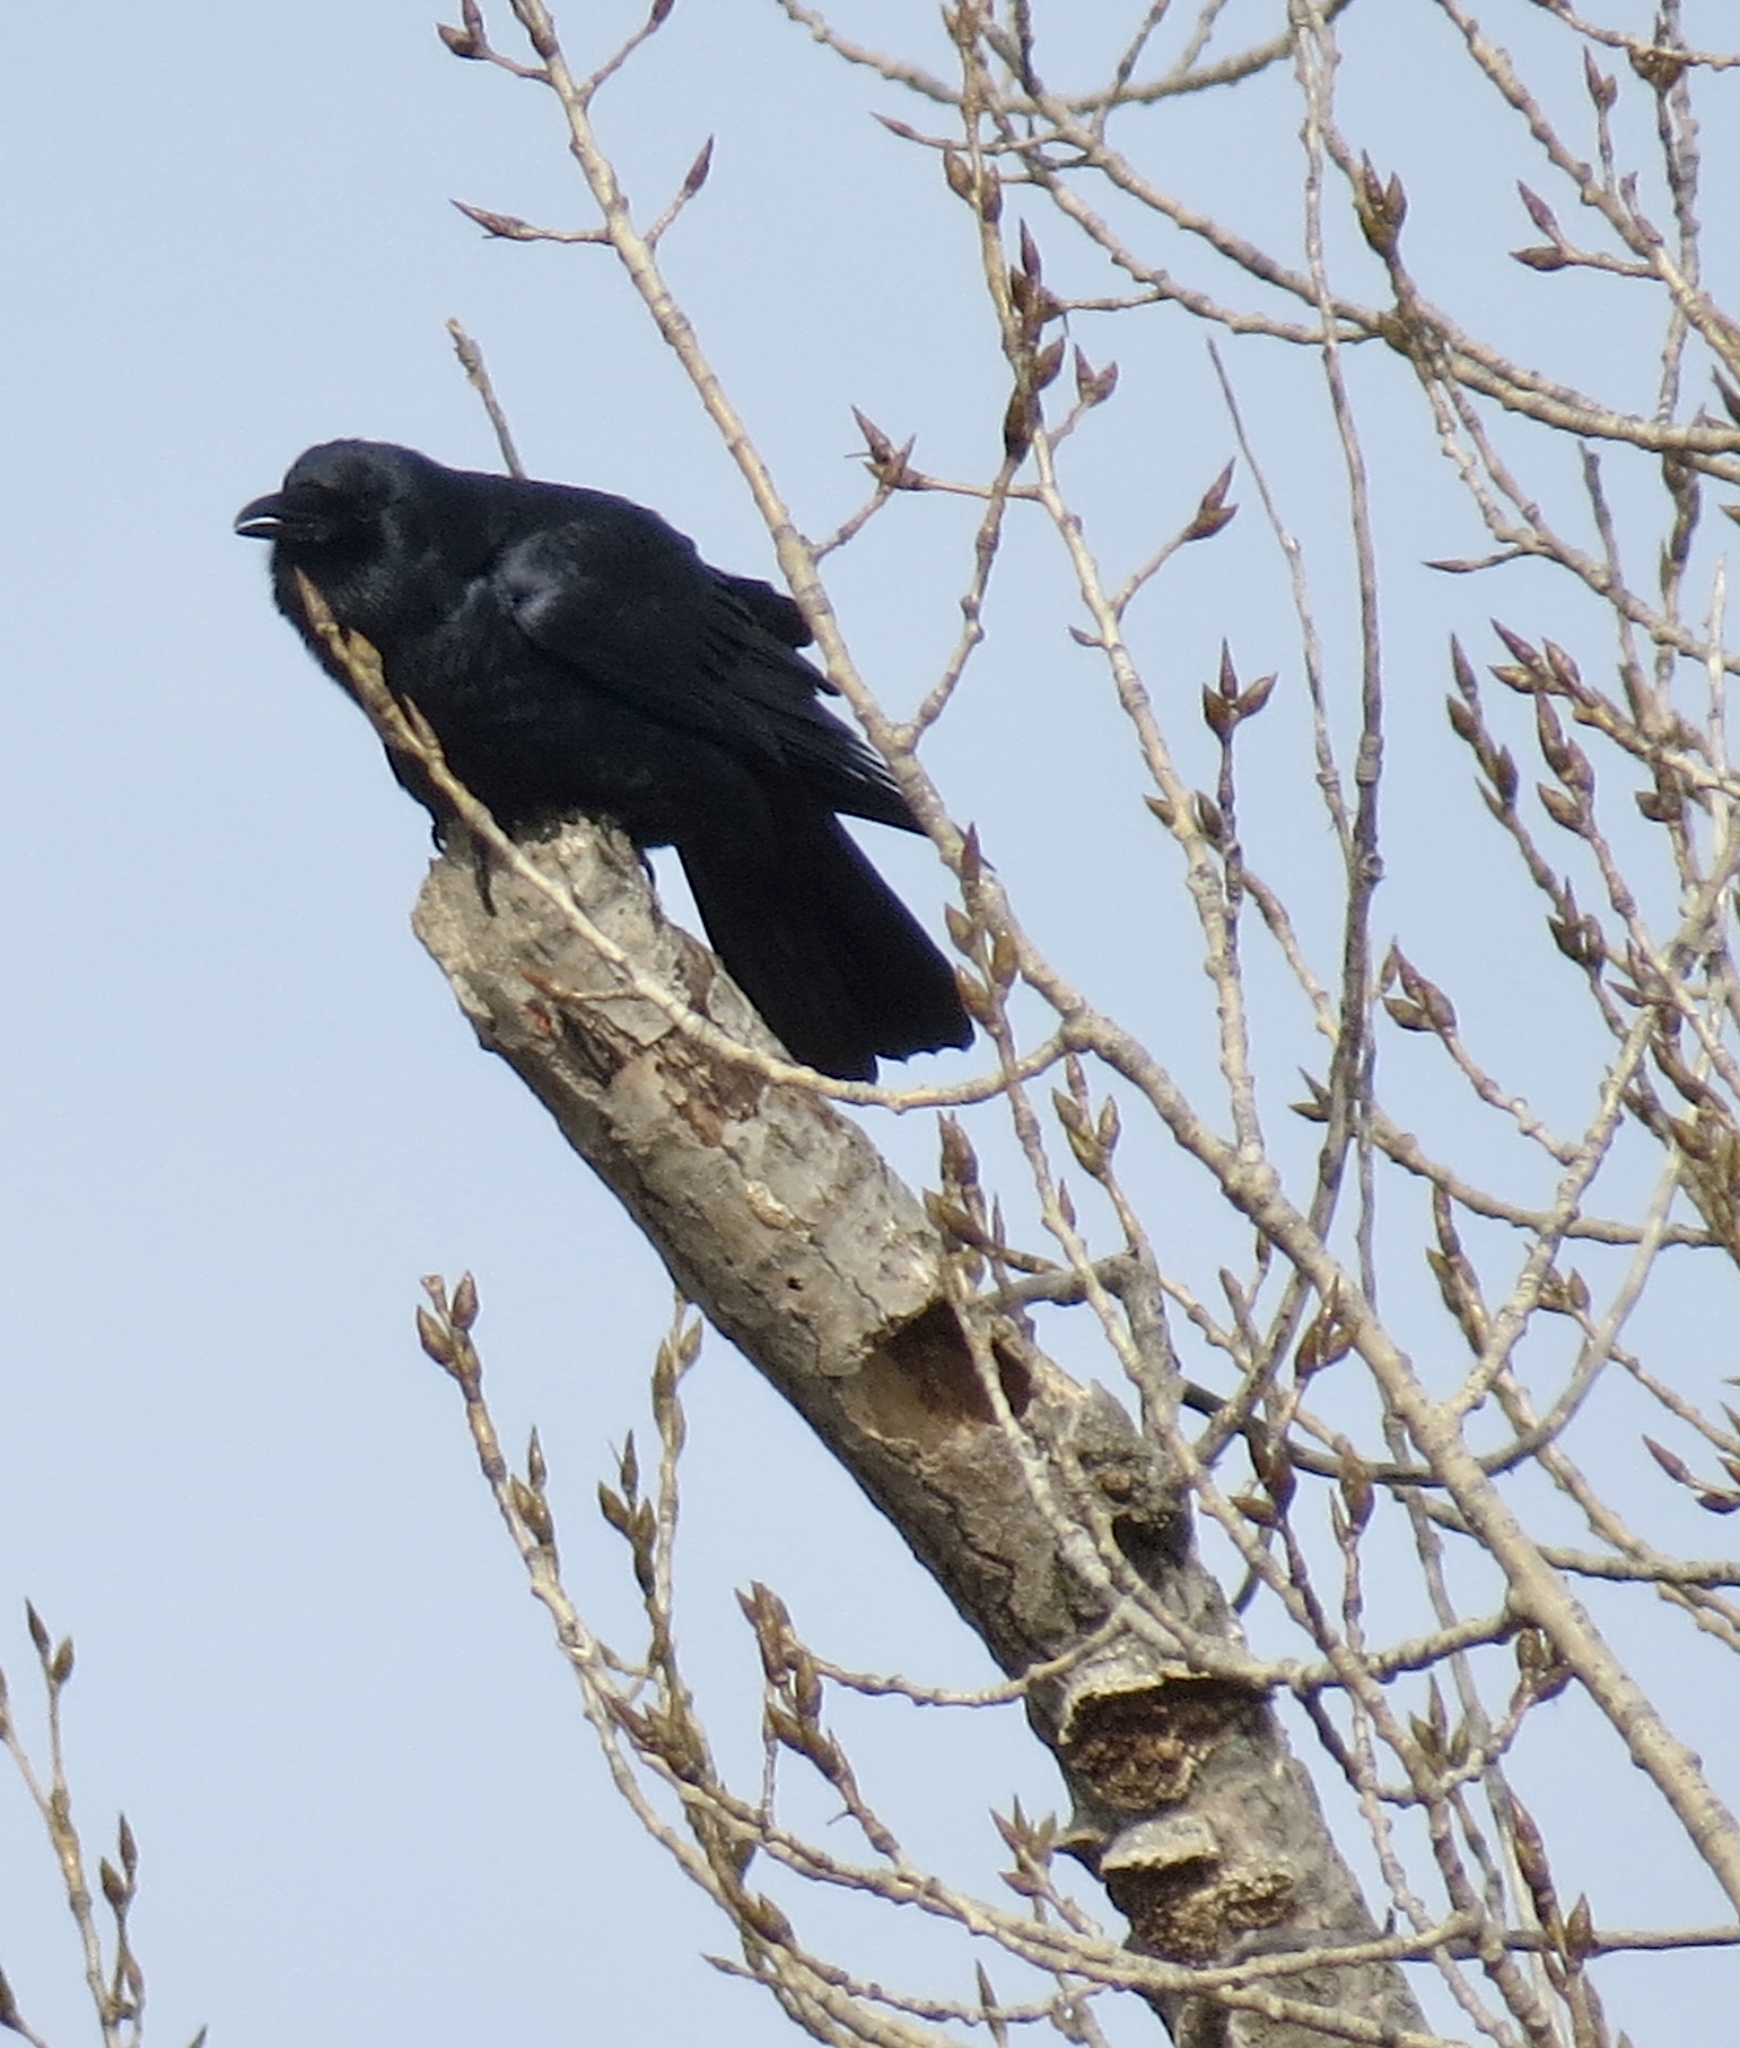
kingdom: Animalia
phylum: Chordata
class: Aves
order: Passeriformes
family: Corvidae
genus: Corvus
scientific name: Corvus
